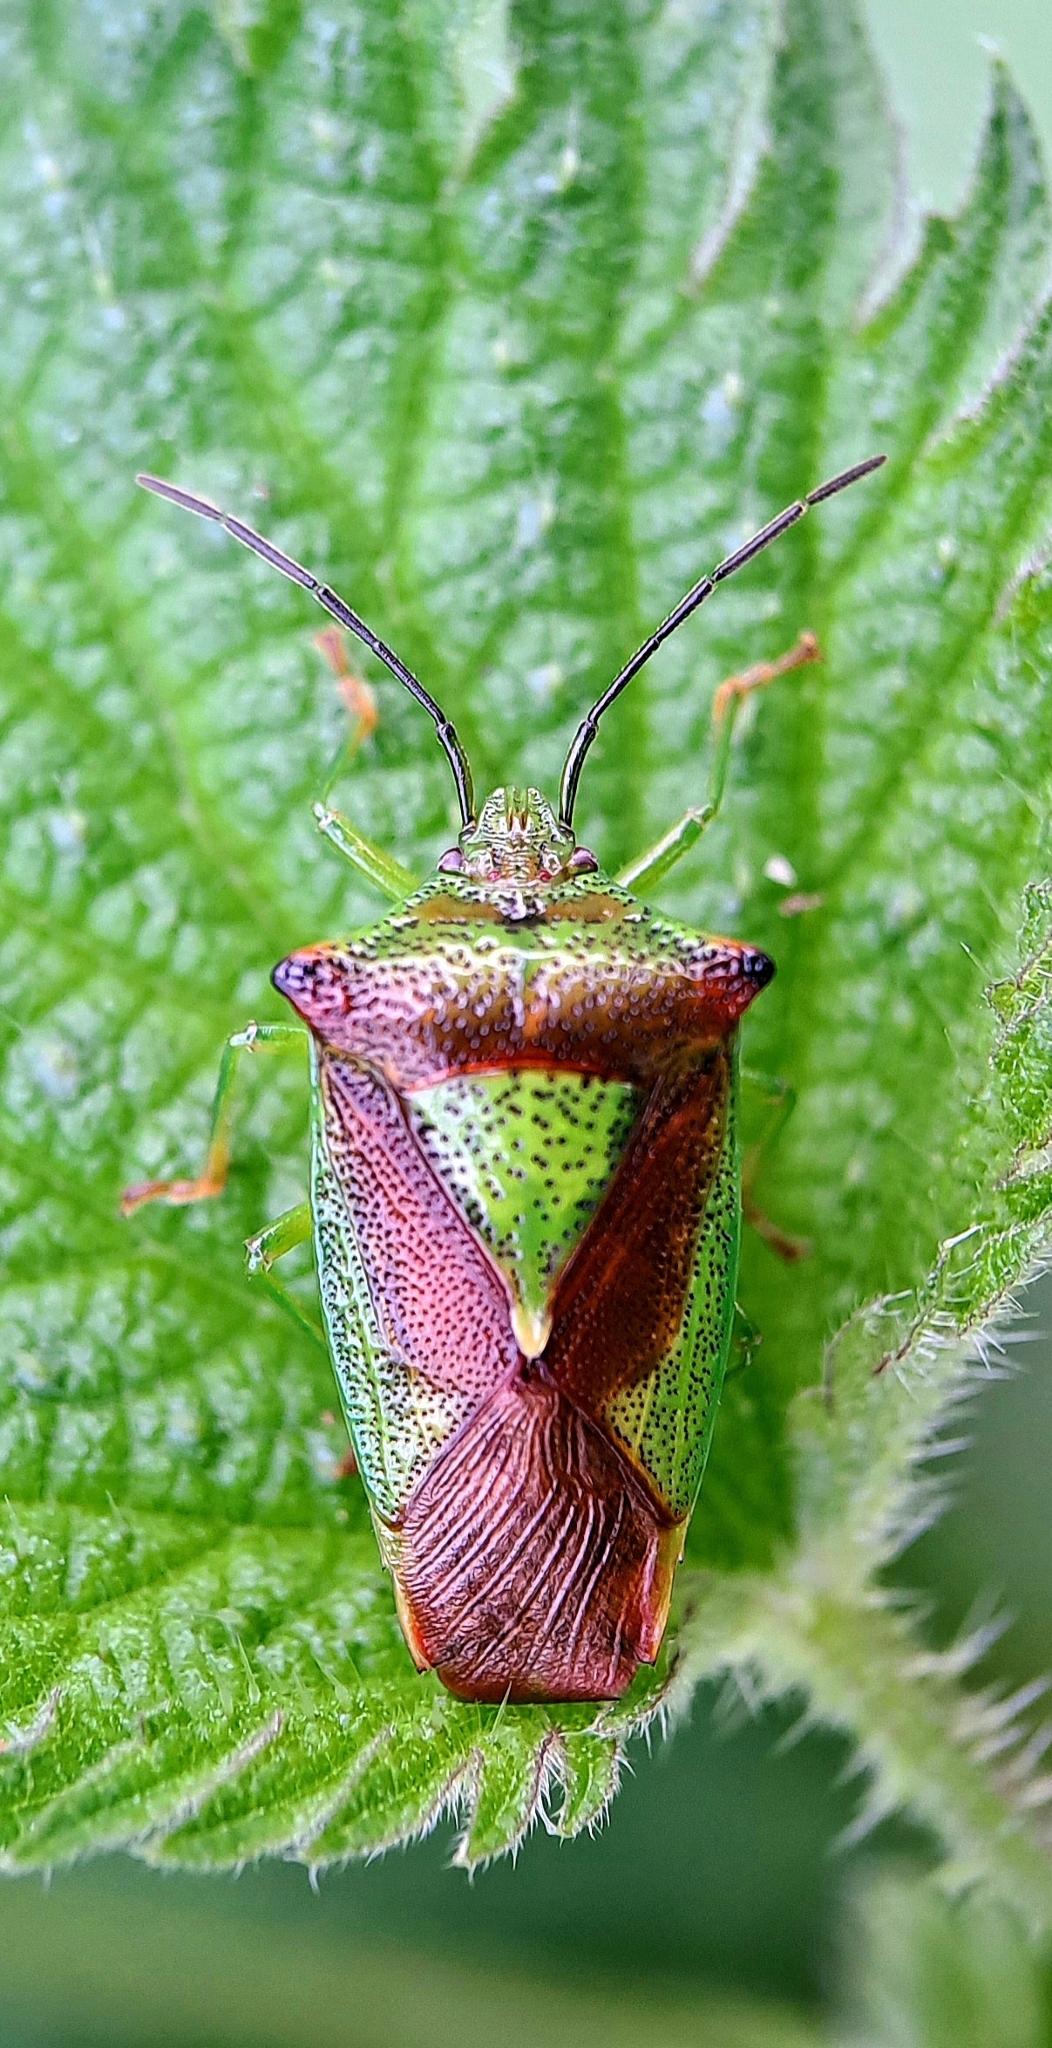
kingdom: Animalia
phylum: Arthropoda
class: Insecta
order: Hemiptera
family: Acanthosomatidae
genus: Acanthosoma
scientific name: Acanthosoma haemorrhoidale
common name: Hawthorn shieldbug
